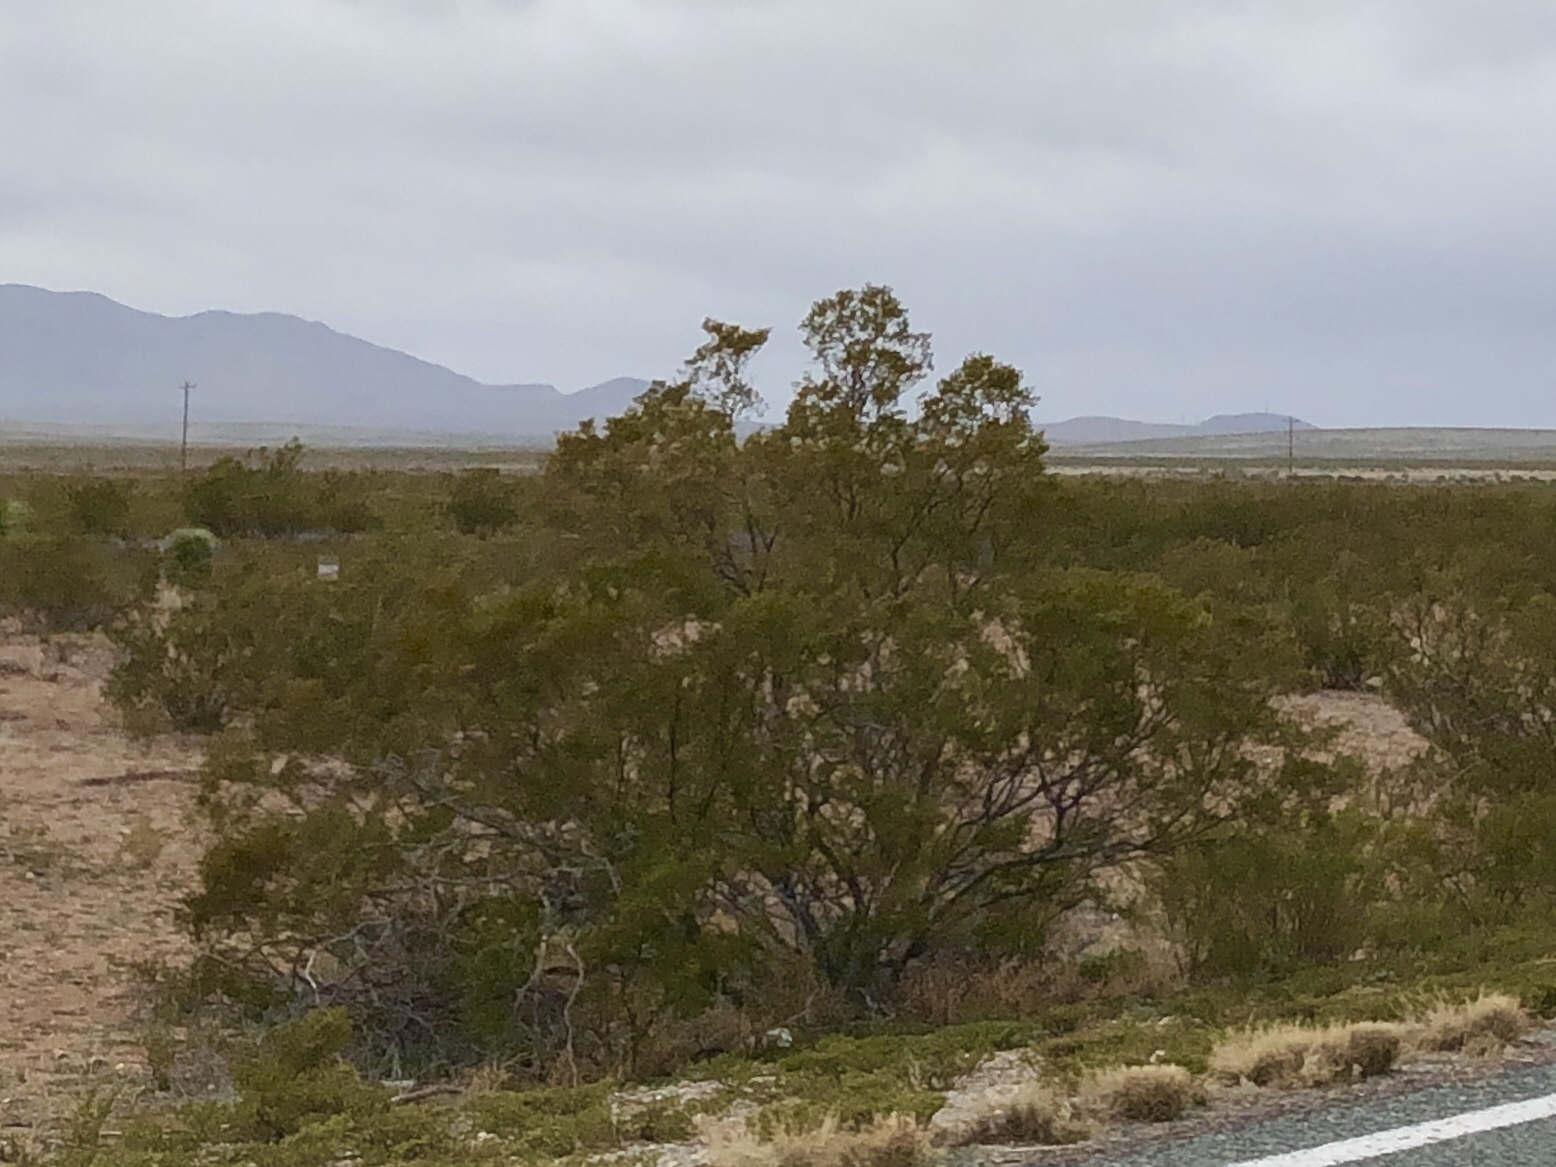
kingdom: Plantae
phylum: Tracheophyta
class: Magnoliopsida
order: Zygophyllales
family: Zygophyllaceae
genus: Larrea
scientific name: Larrea tridentata
